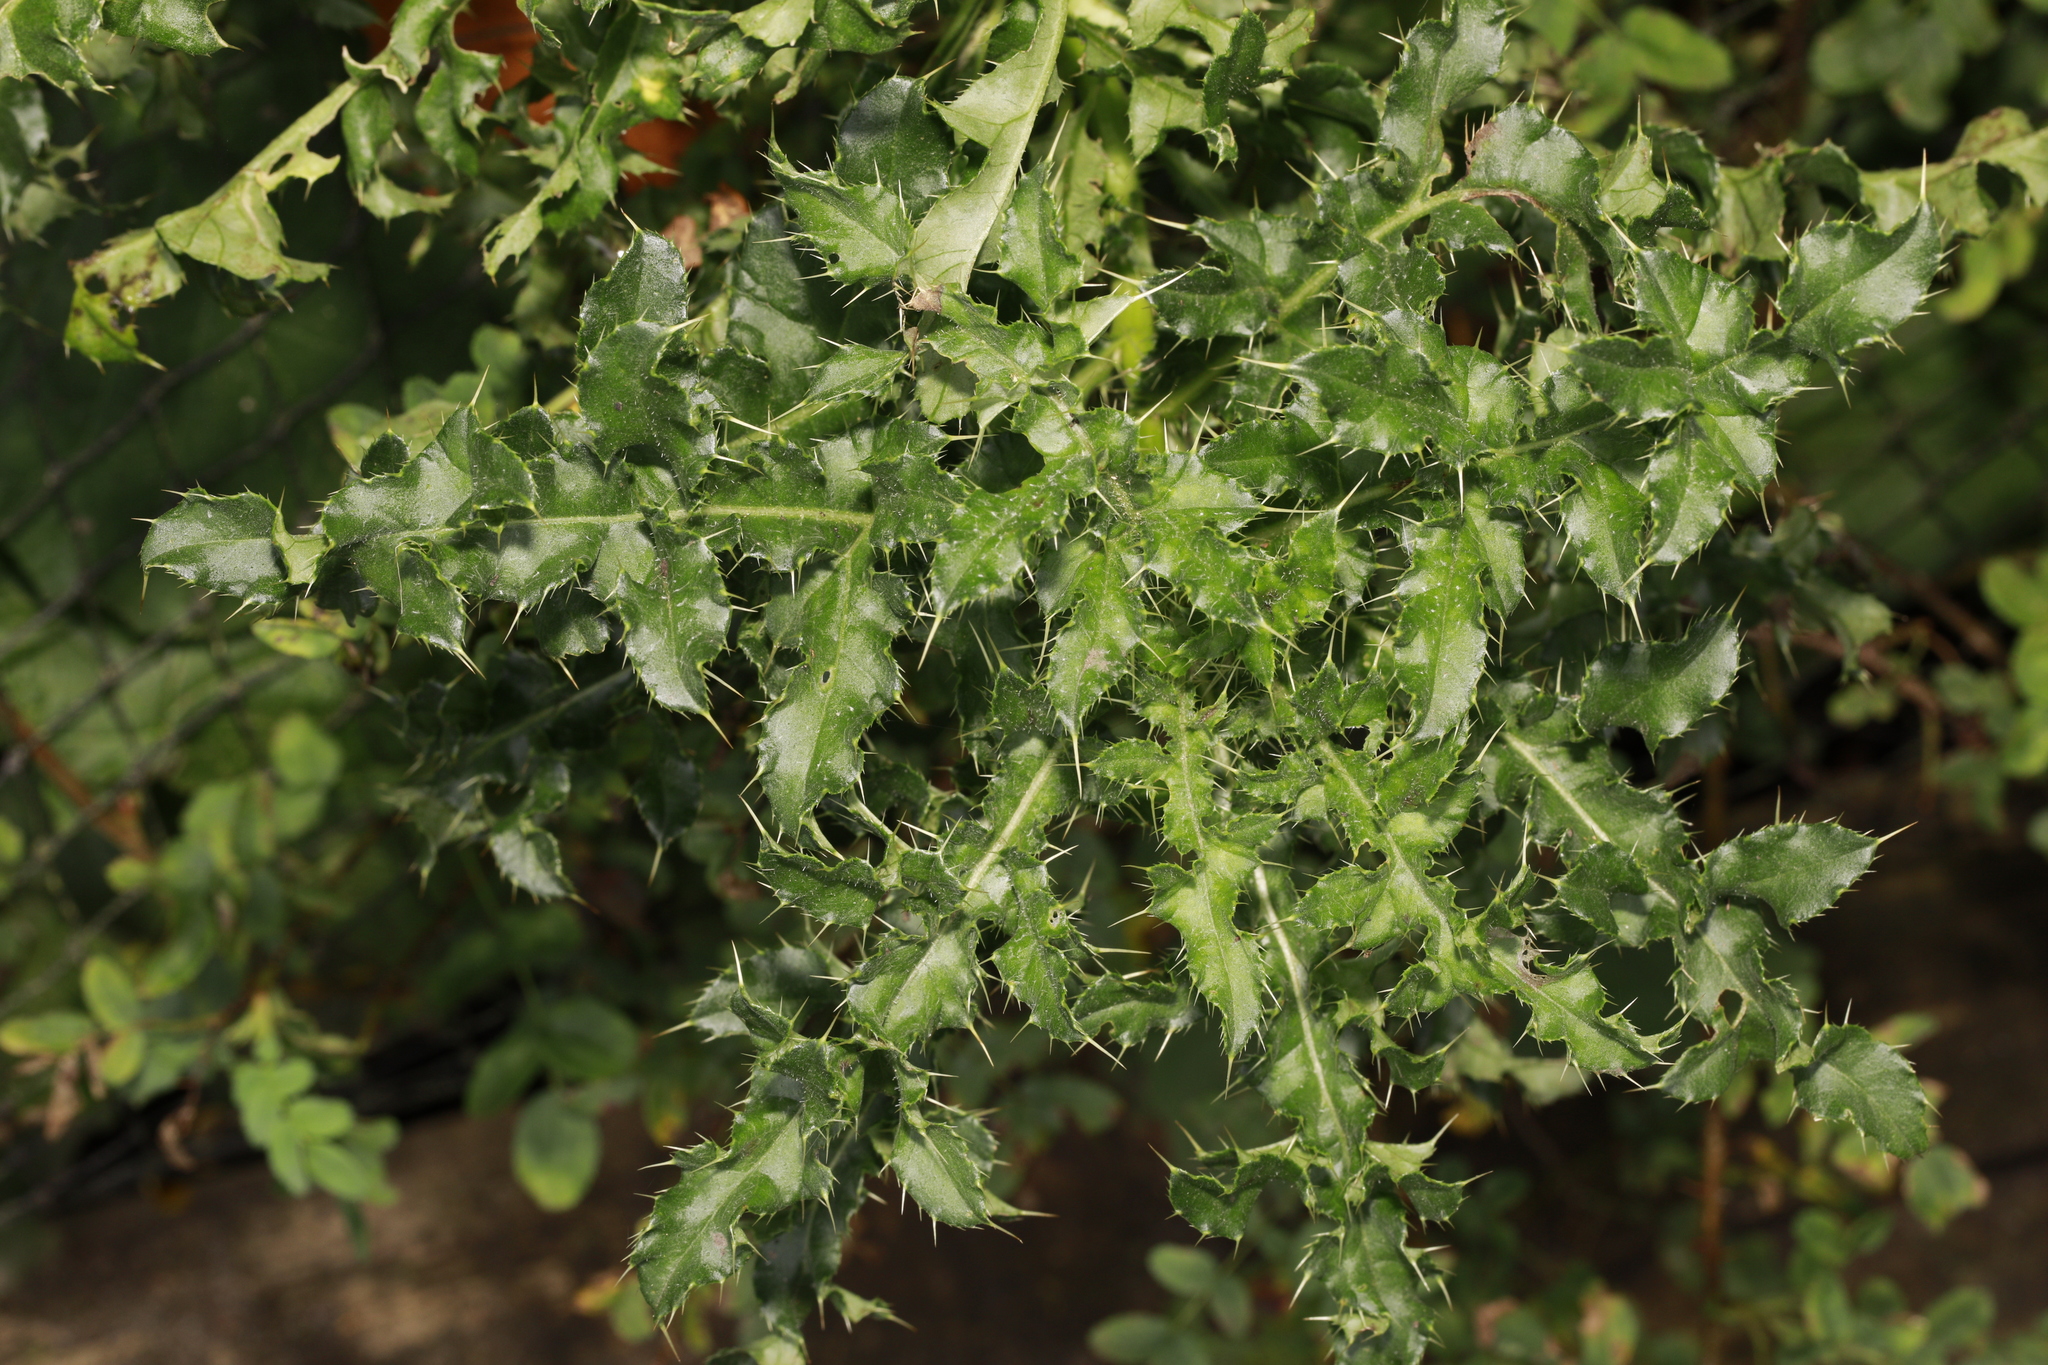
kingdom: Plantae
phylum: Tracheophyta
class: Magnoliopsida
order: Asterales
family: Asteraceae
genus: Cirsium
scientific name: Cirsium arvense
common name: Creeping thistle
